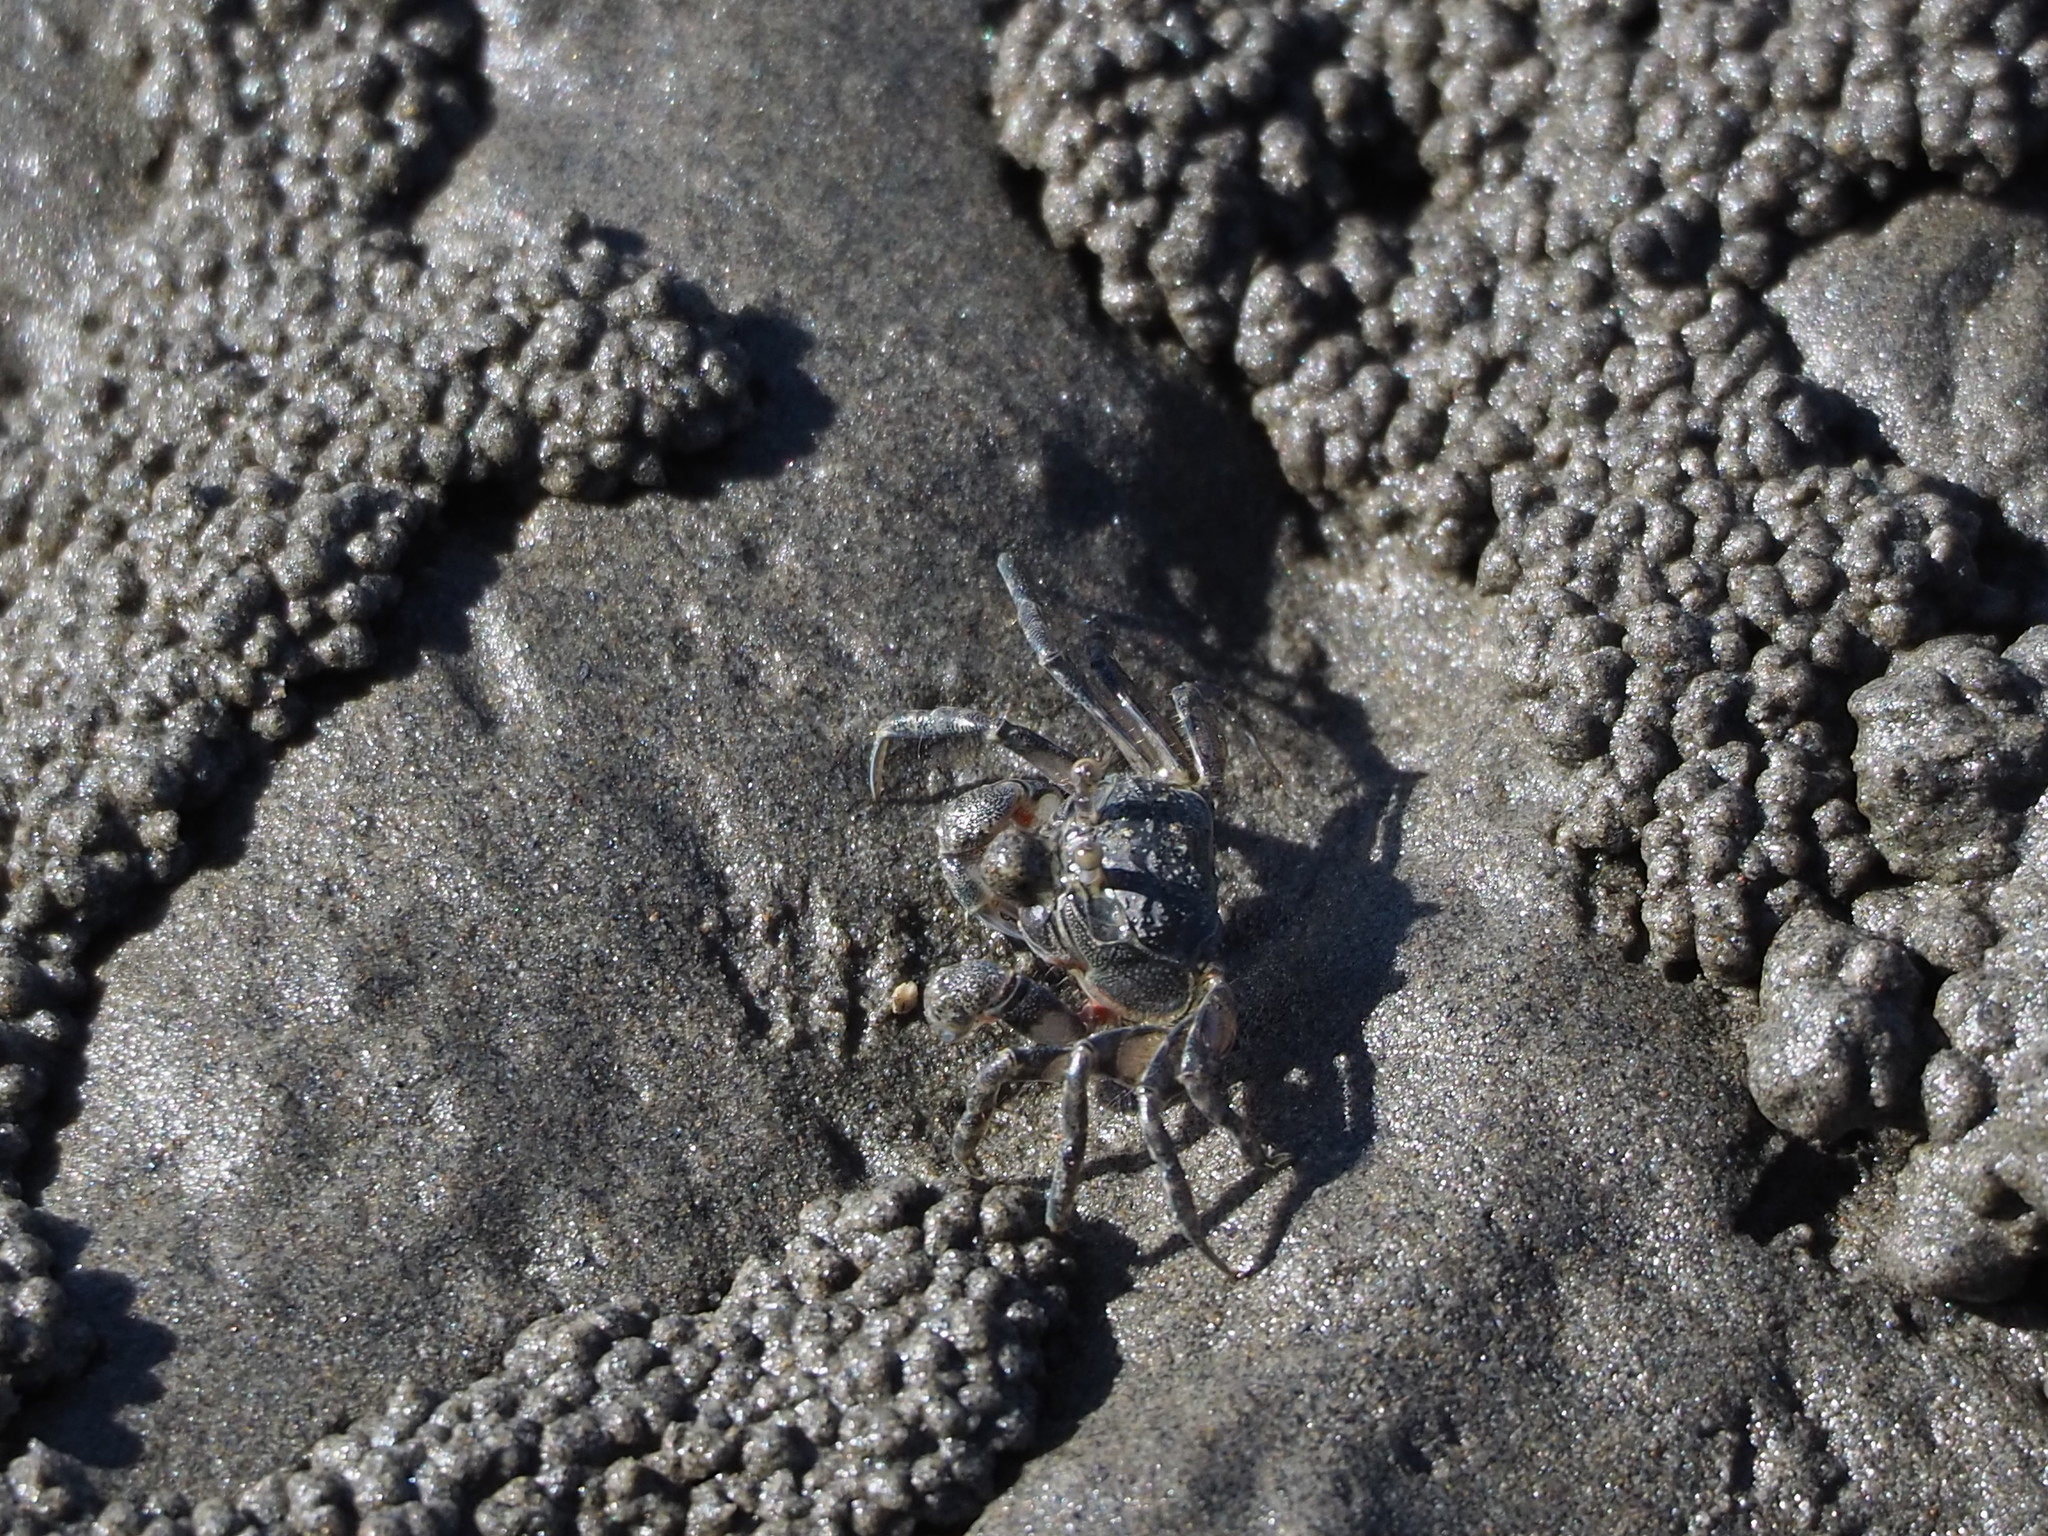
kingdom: Animalia
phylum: Arthropoda
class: Malacostraca
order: Decapoda
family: Dotillidae
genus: Scopimera
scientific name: Scopimera bitympana
